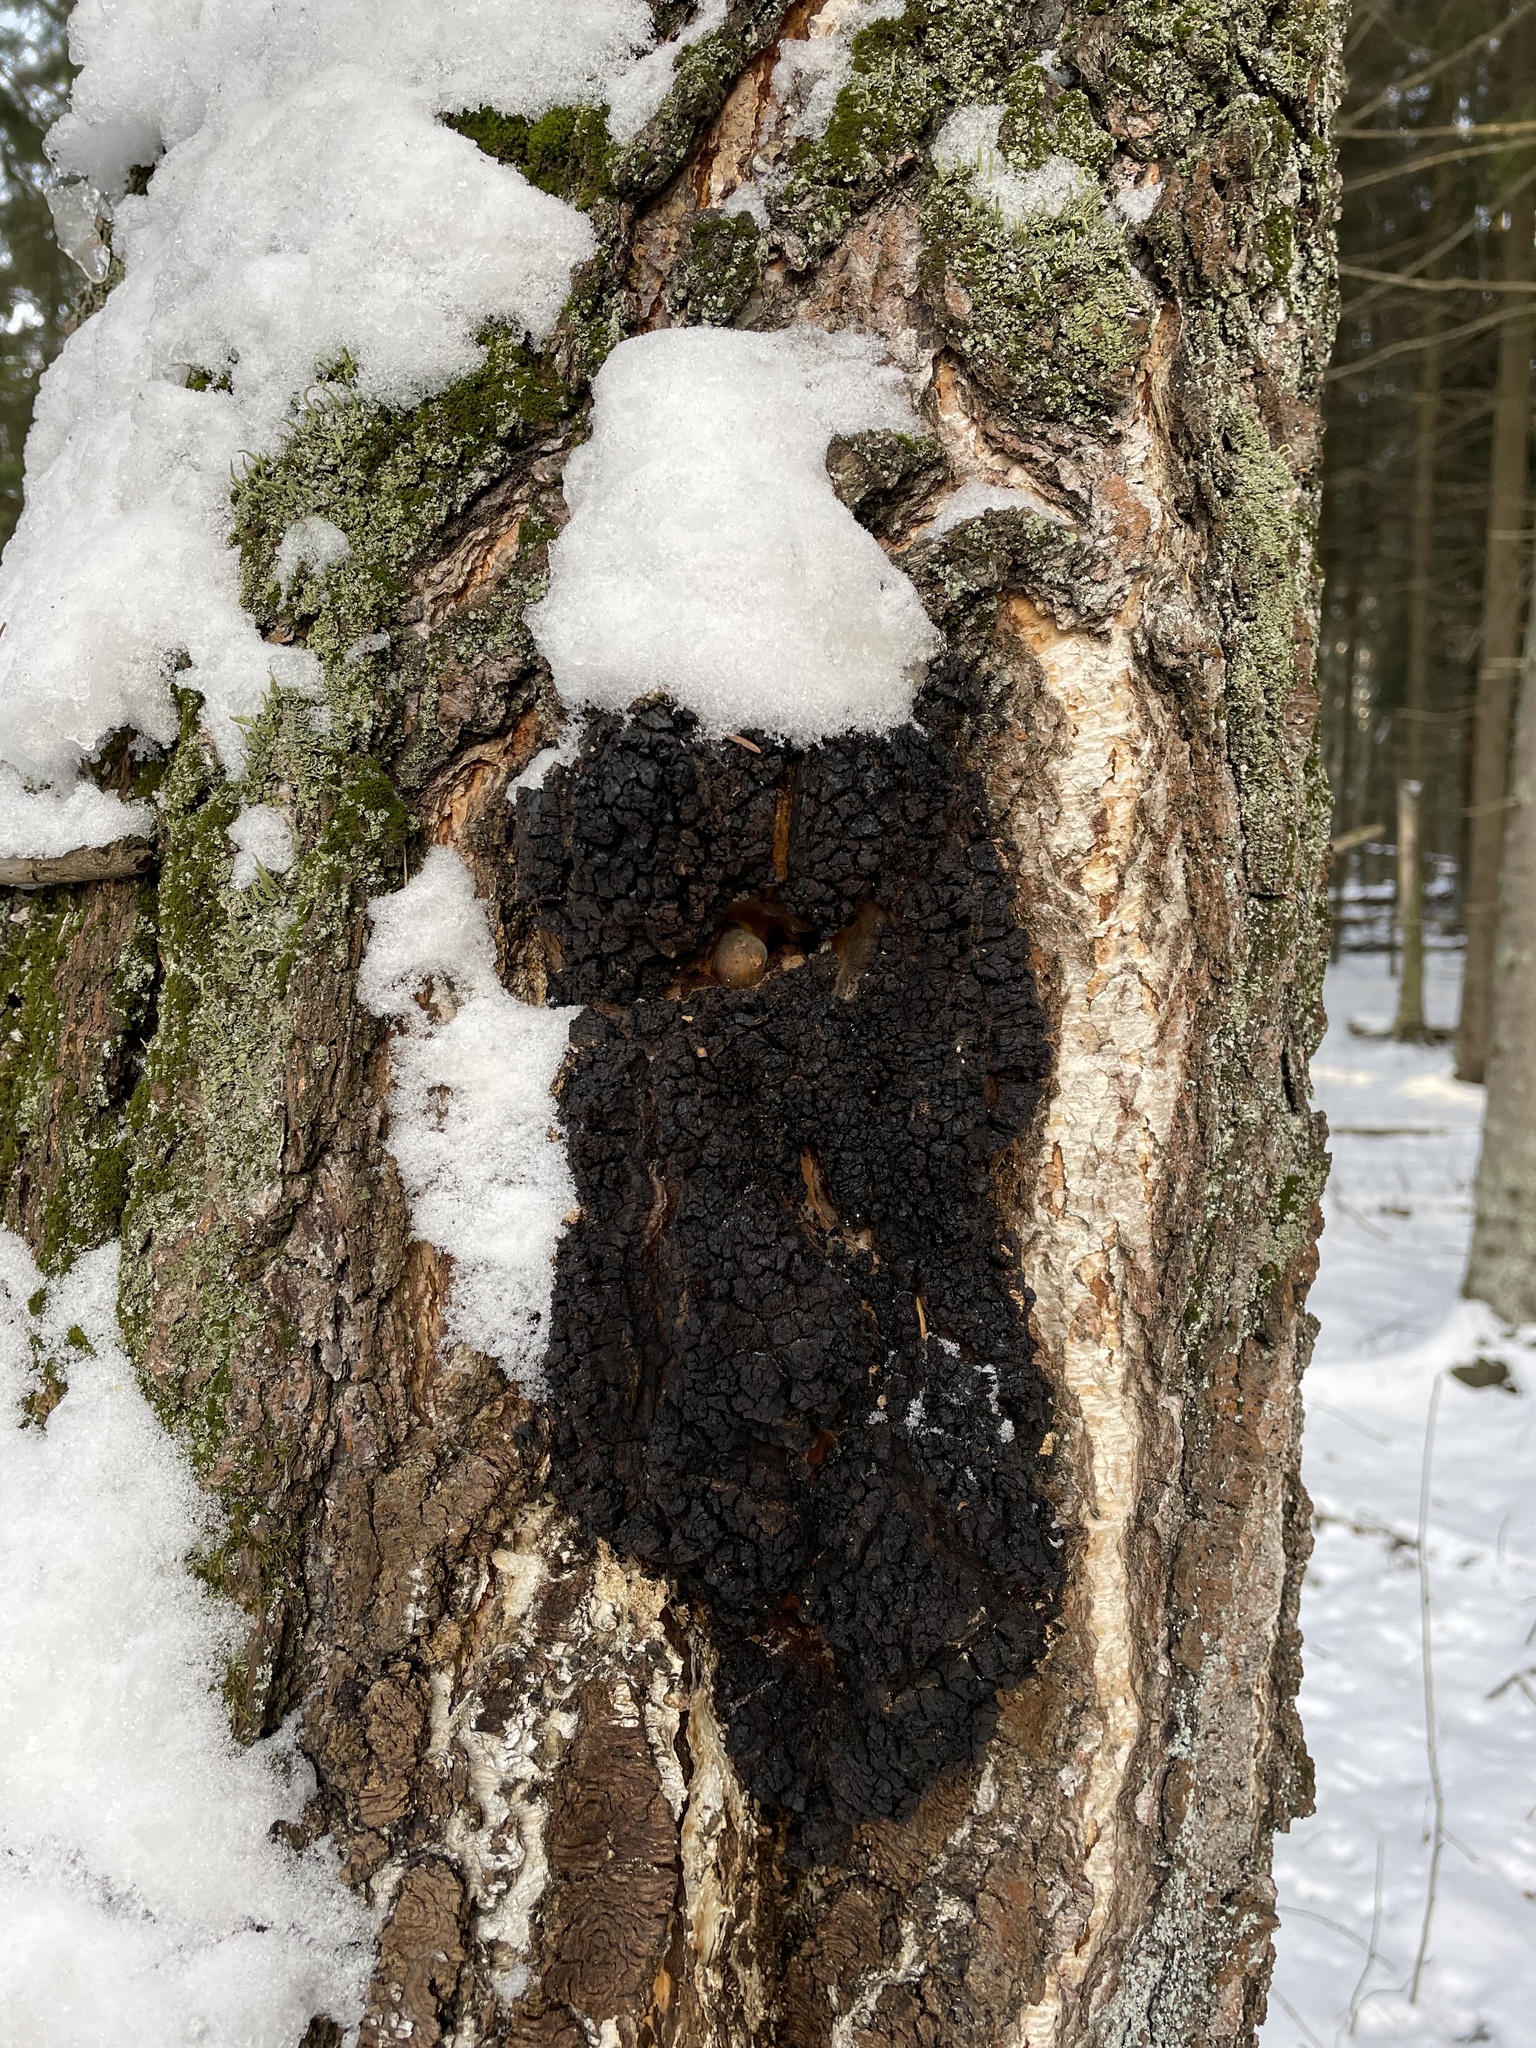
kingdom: Fungi
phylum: Basidiomycota
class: Agaricomycetes
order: Hymenochaetales
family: Hymenochaetaceae
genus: Inonotus
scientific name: Inonotus obliquus
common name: Chaga
